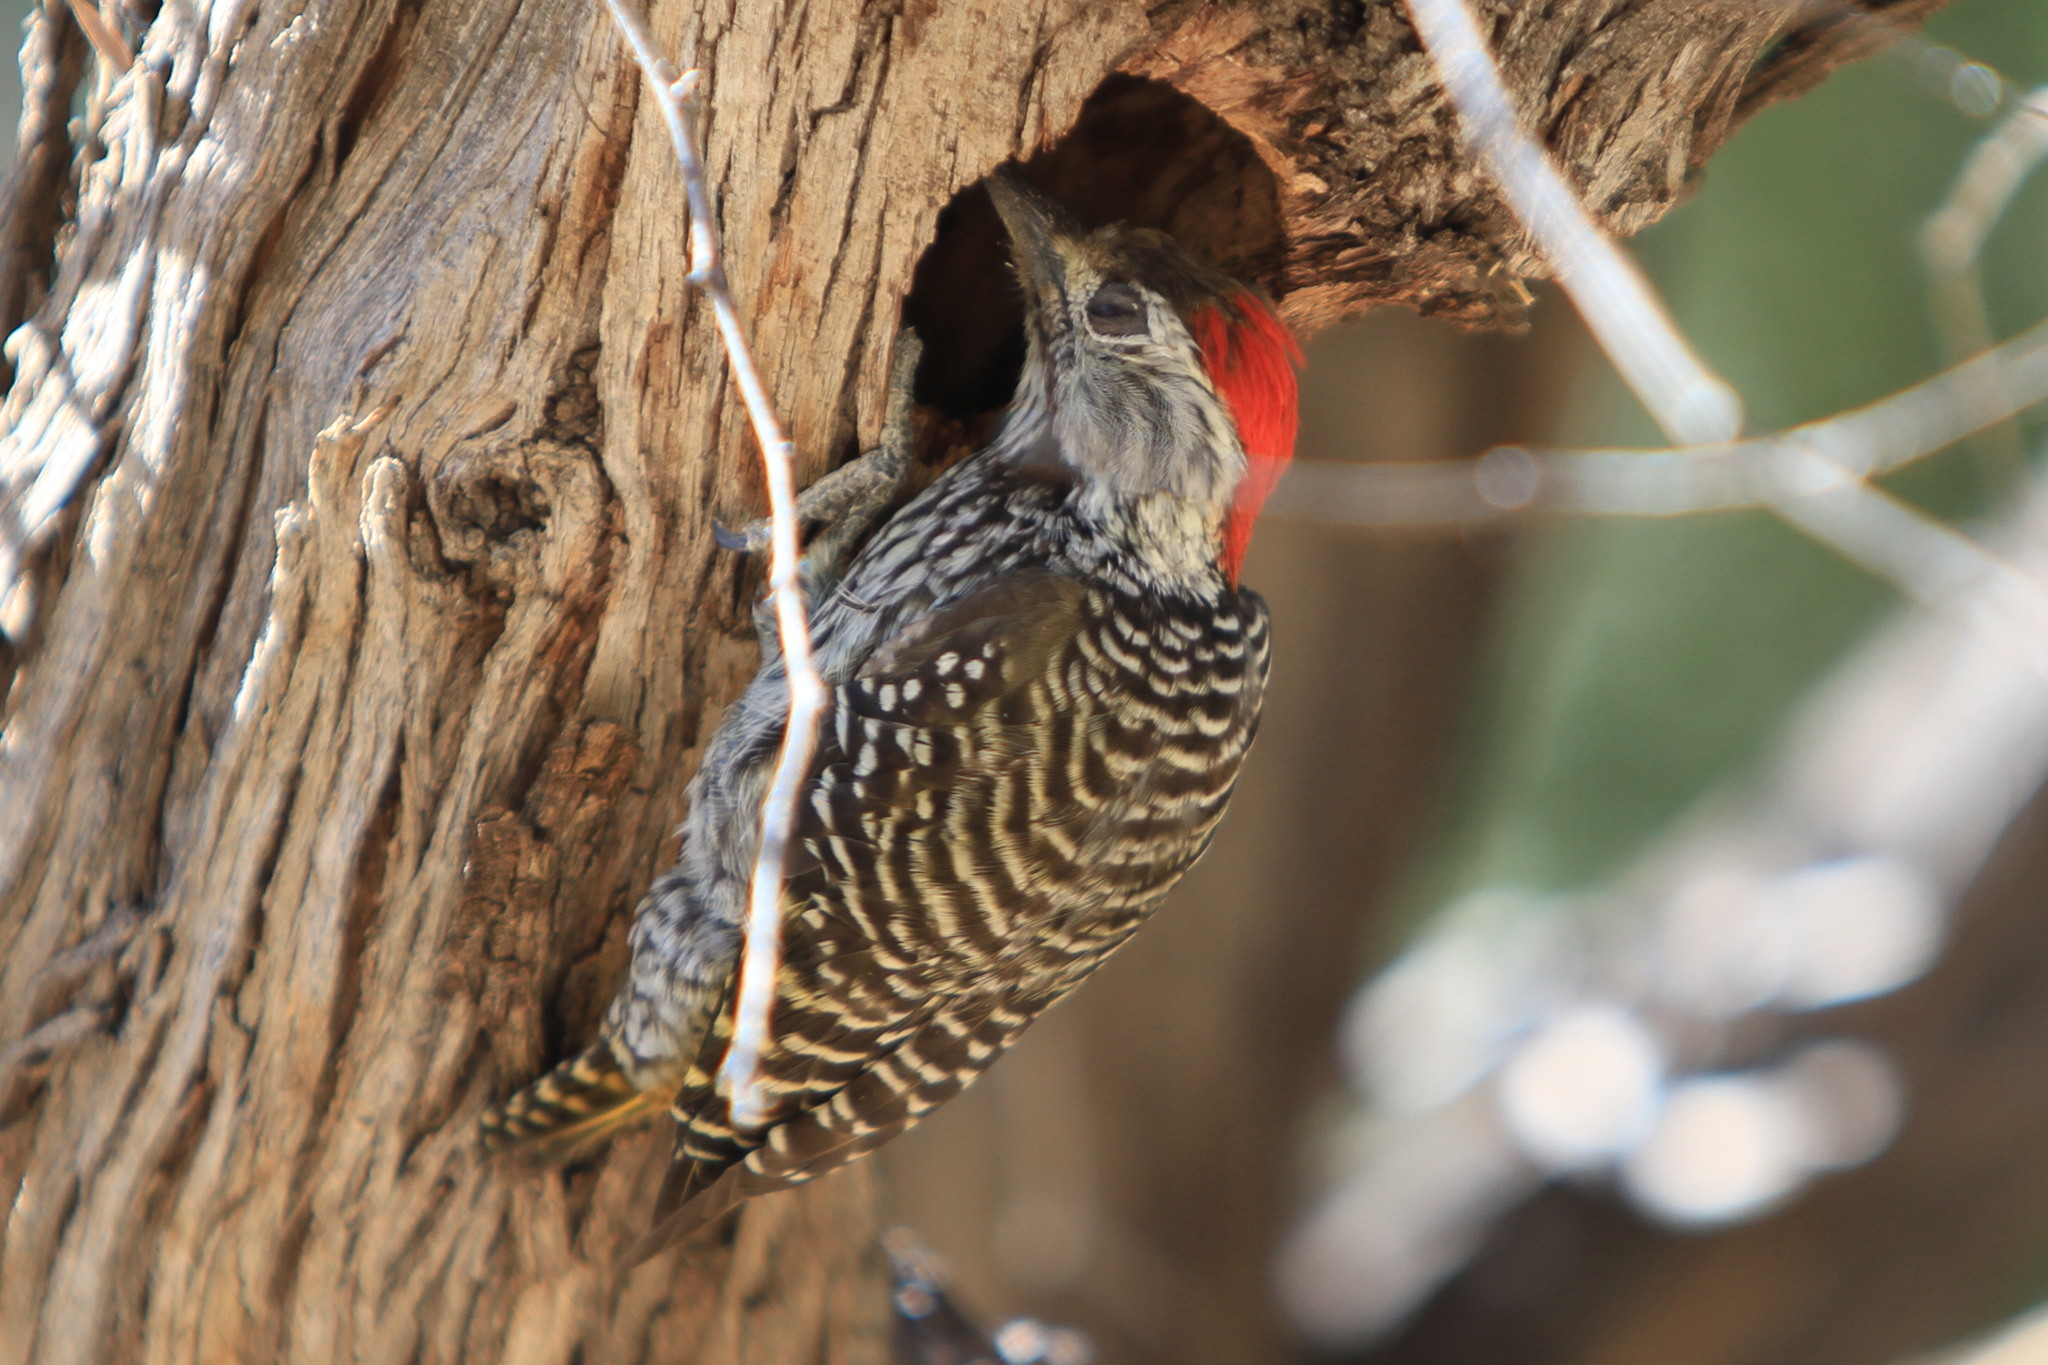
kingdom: Animalia
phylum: Chordata
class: Aves
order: Piciformes
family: Picidae
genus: Dendropicos
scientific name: Dendropicos fuscescens
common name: Cardinal woodpecker
